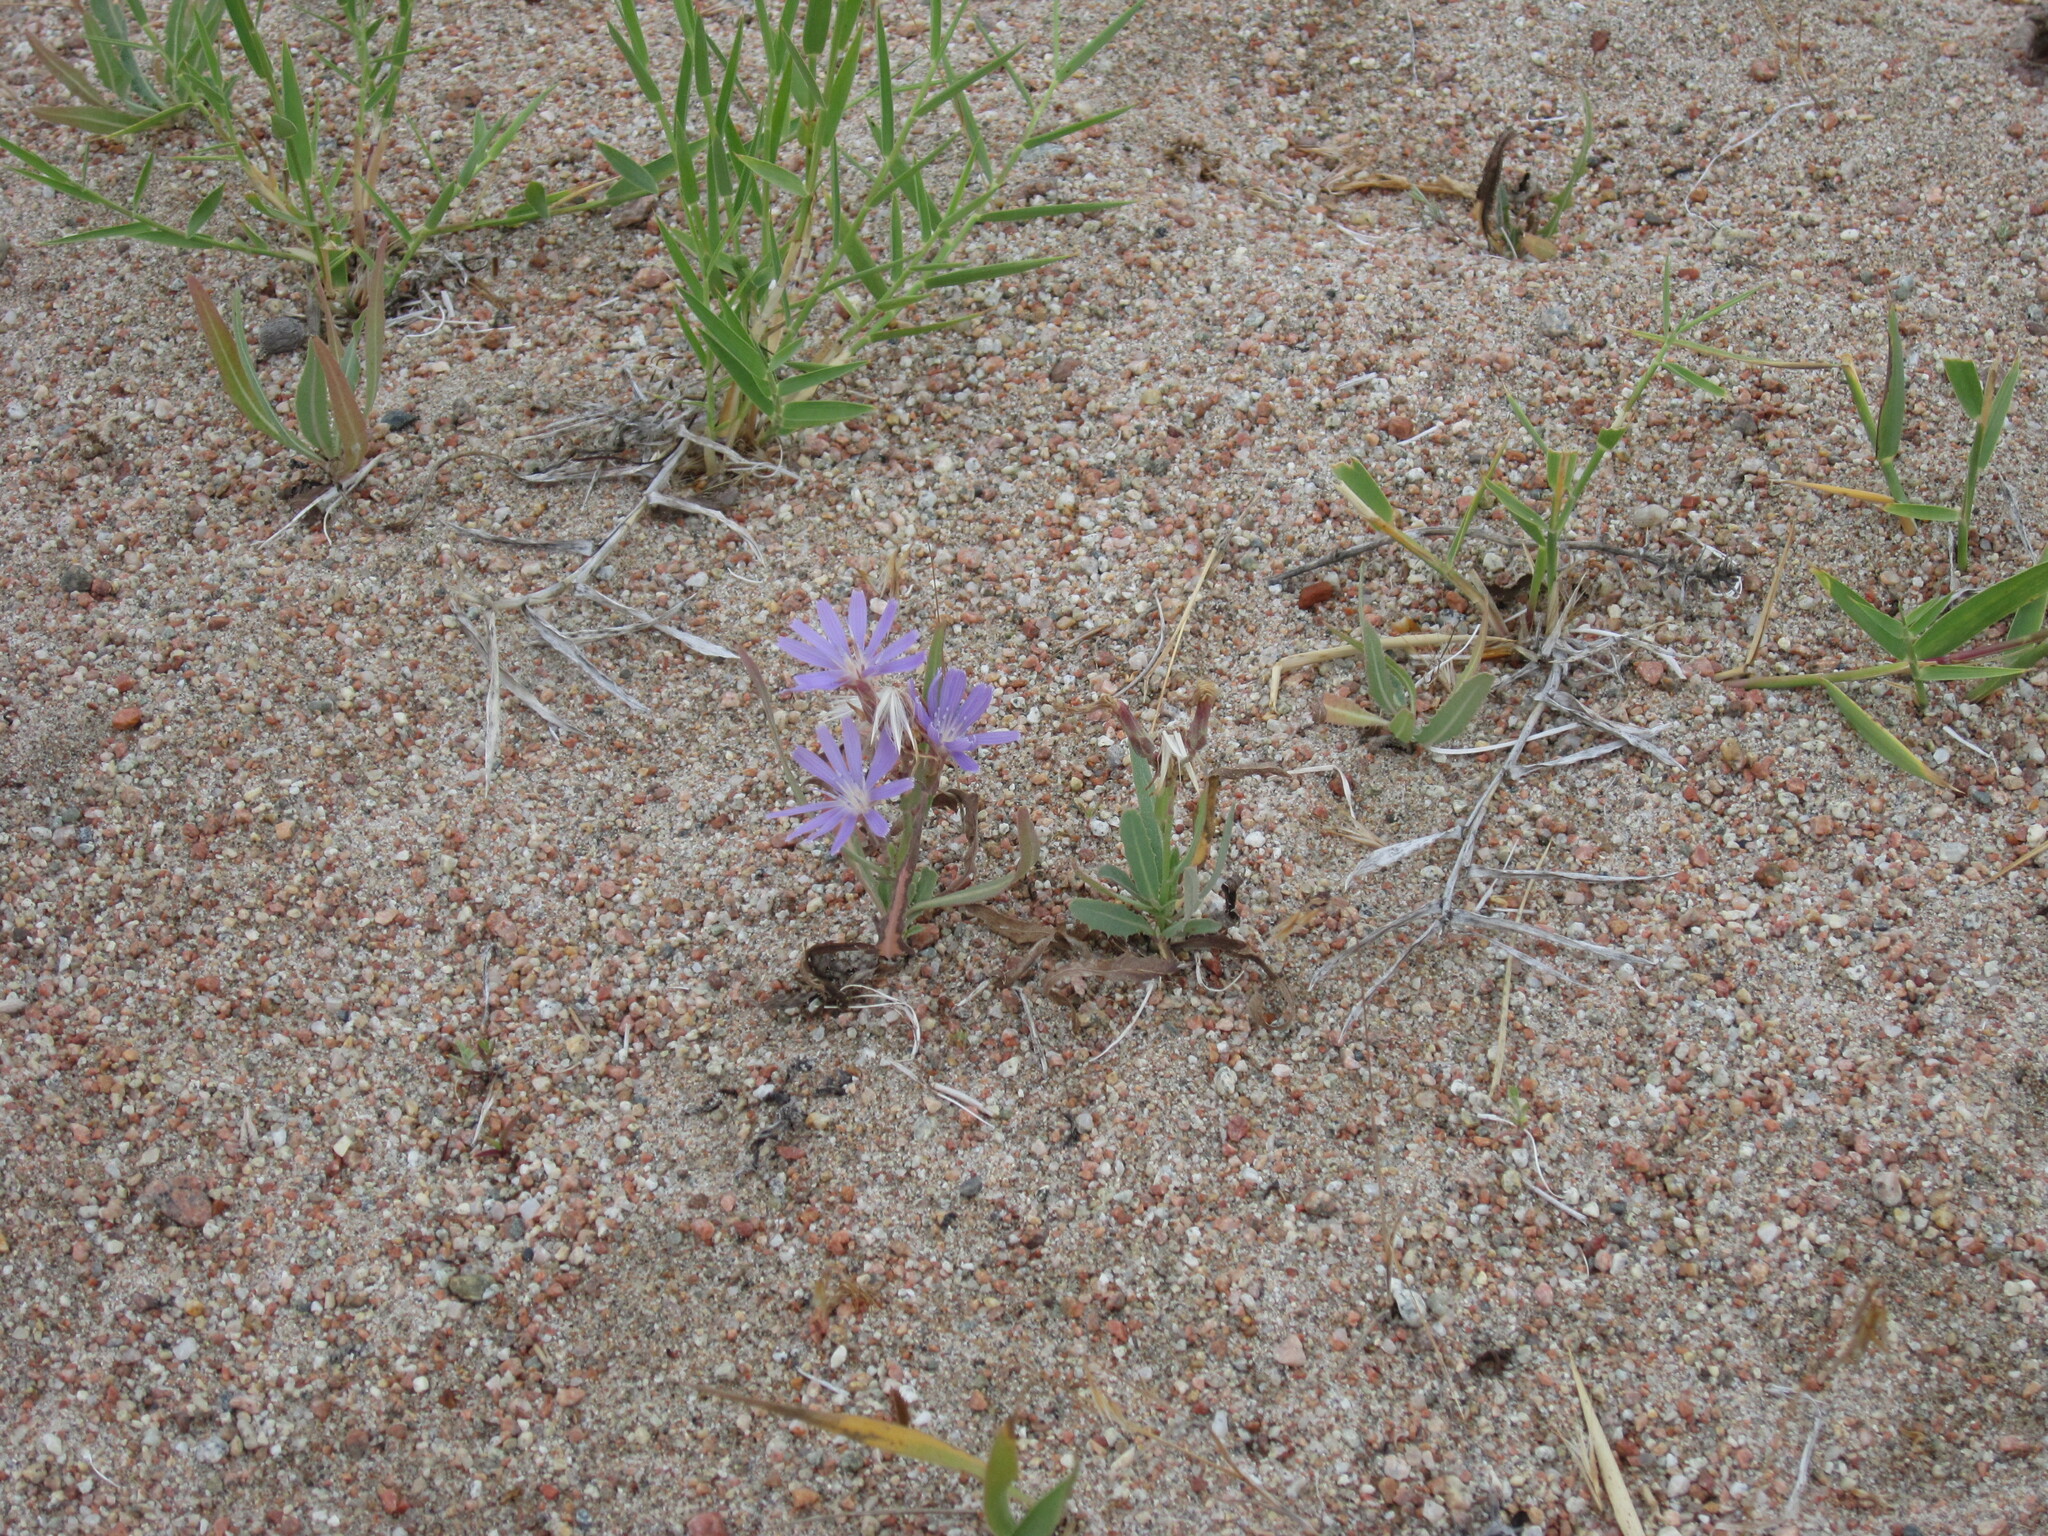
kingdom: Plantae
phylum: Tracheophyta
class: Magnoliopsida
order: Asterales
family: Asteraceae
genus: Lactuca
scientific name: Lactuca tatarica
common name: Blue lettuce
